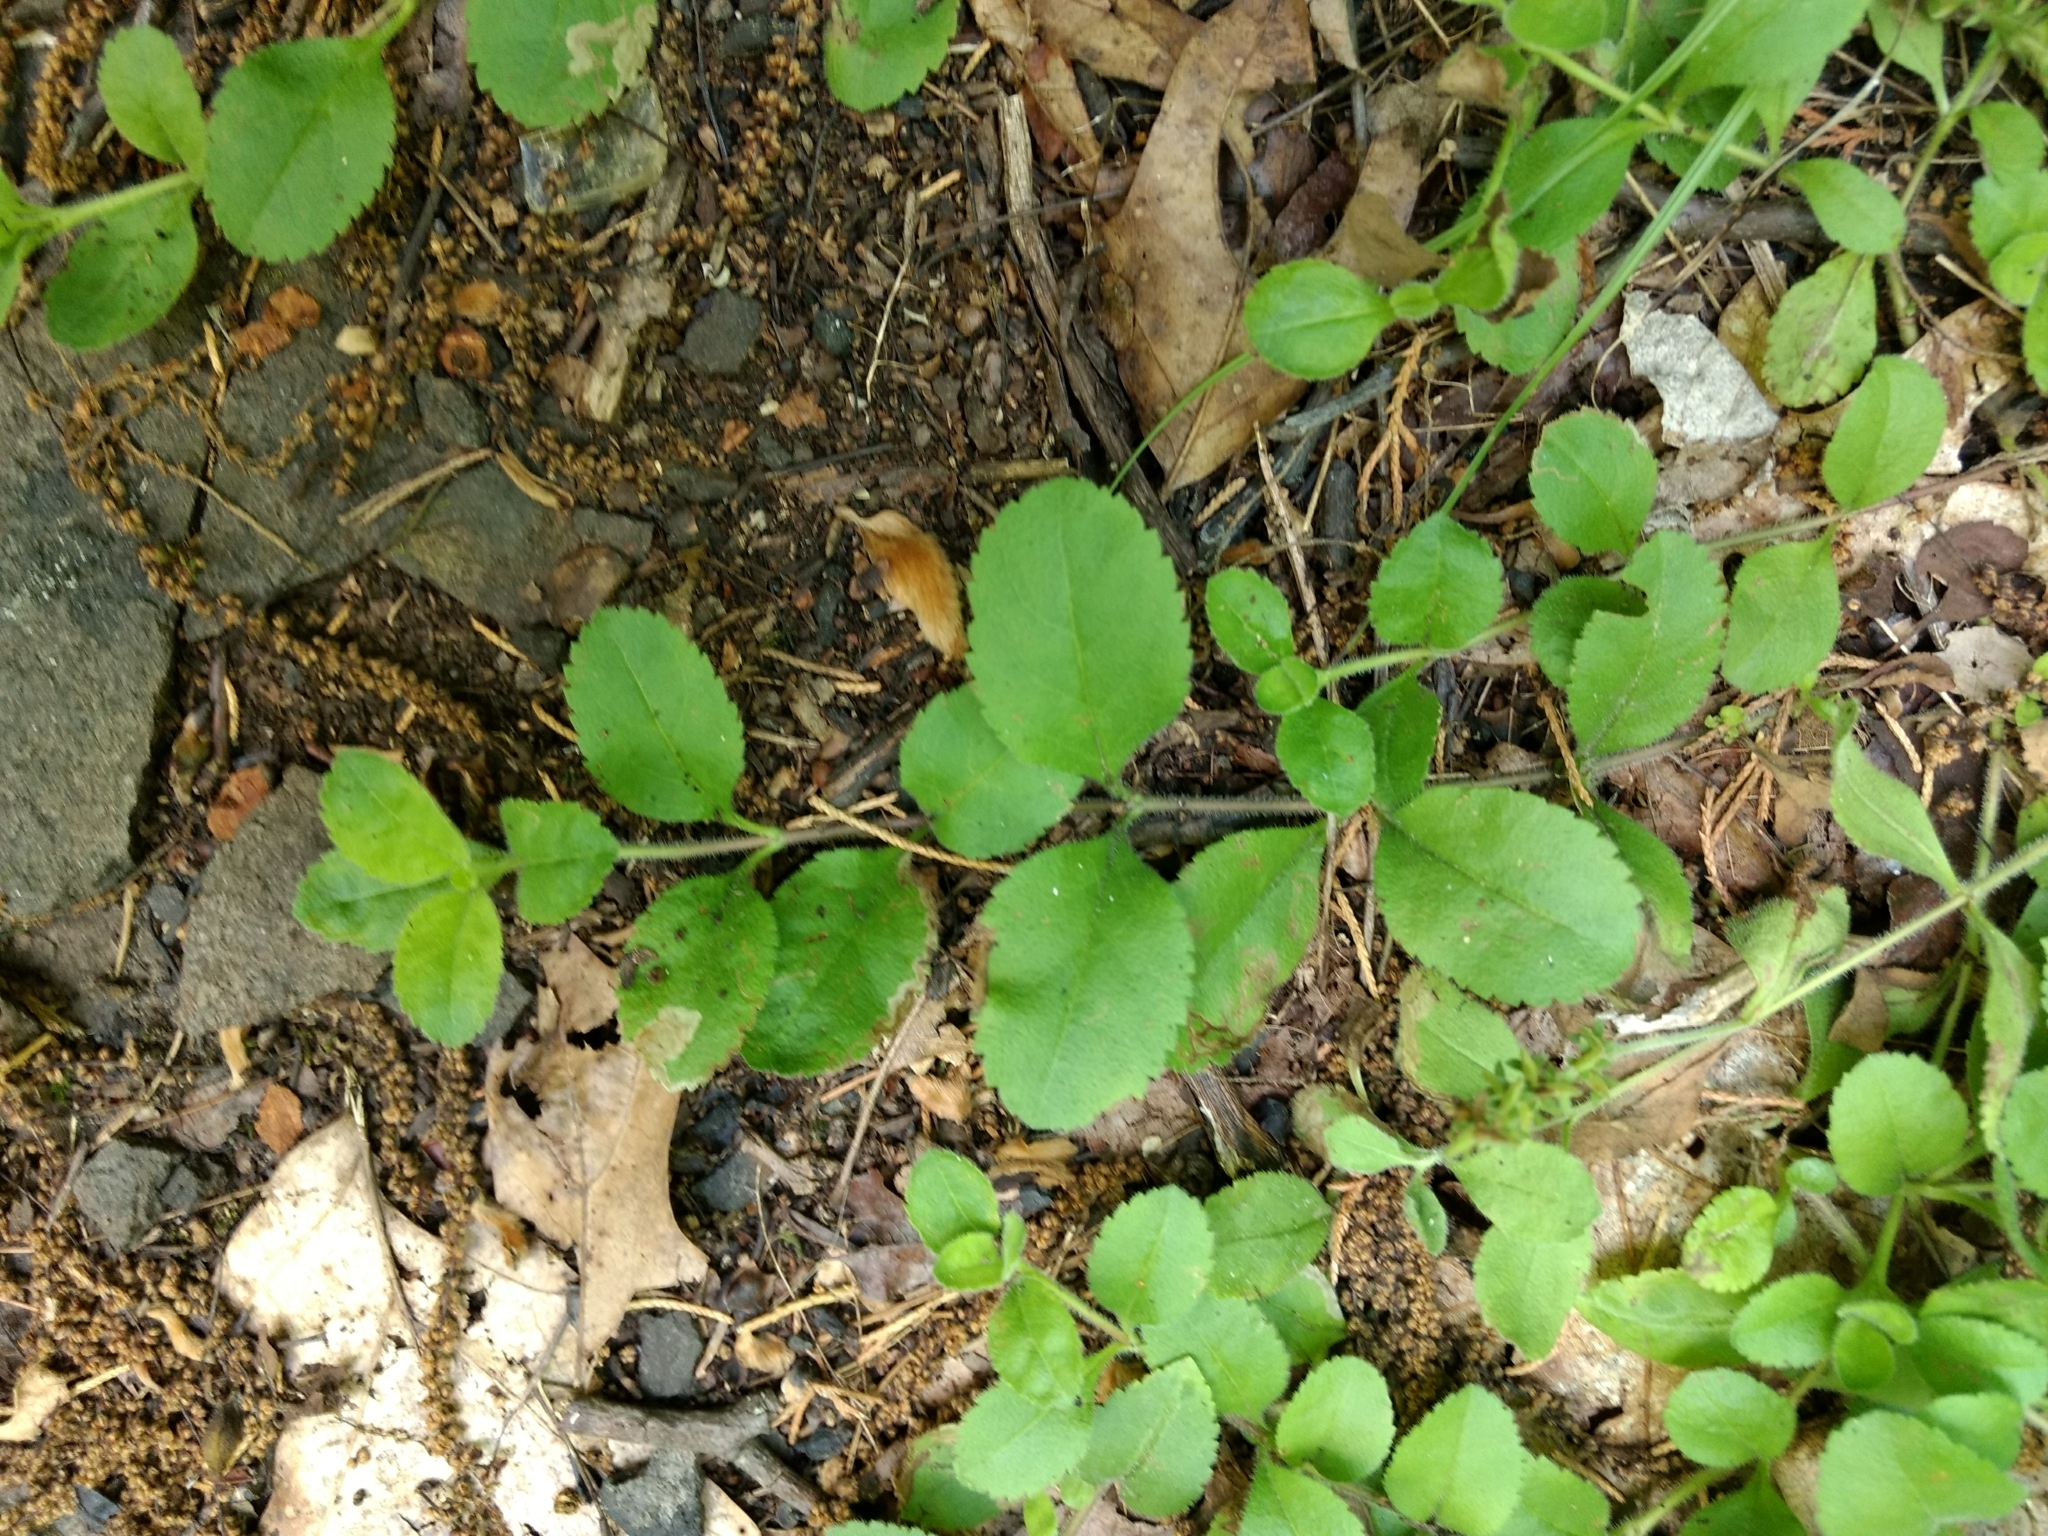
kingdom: Plantae
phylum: Tracheophyta
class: Magnoliopsida
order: Lamiales
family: Plantaginaceae
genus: Veronica
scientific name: Veronica officinalis
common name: Common speedwell
